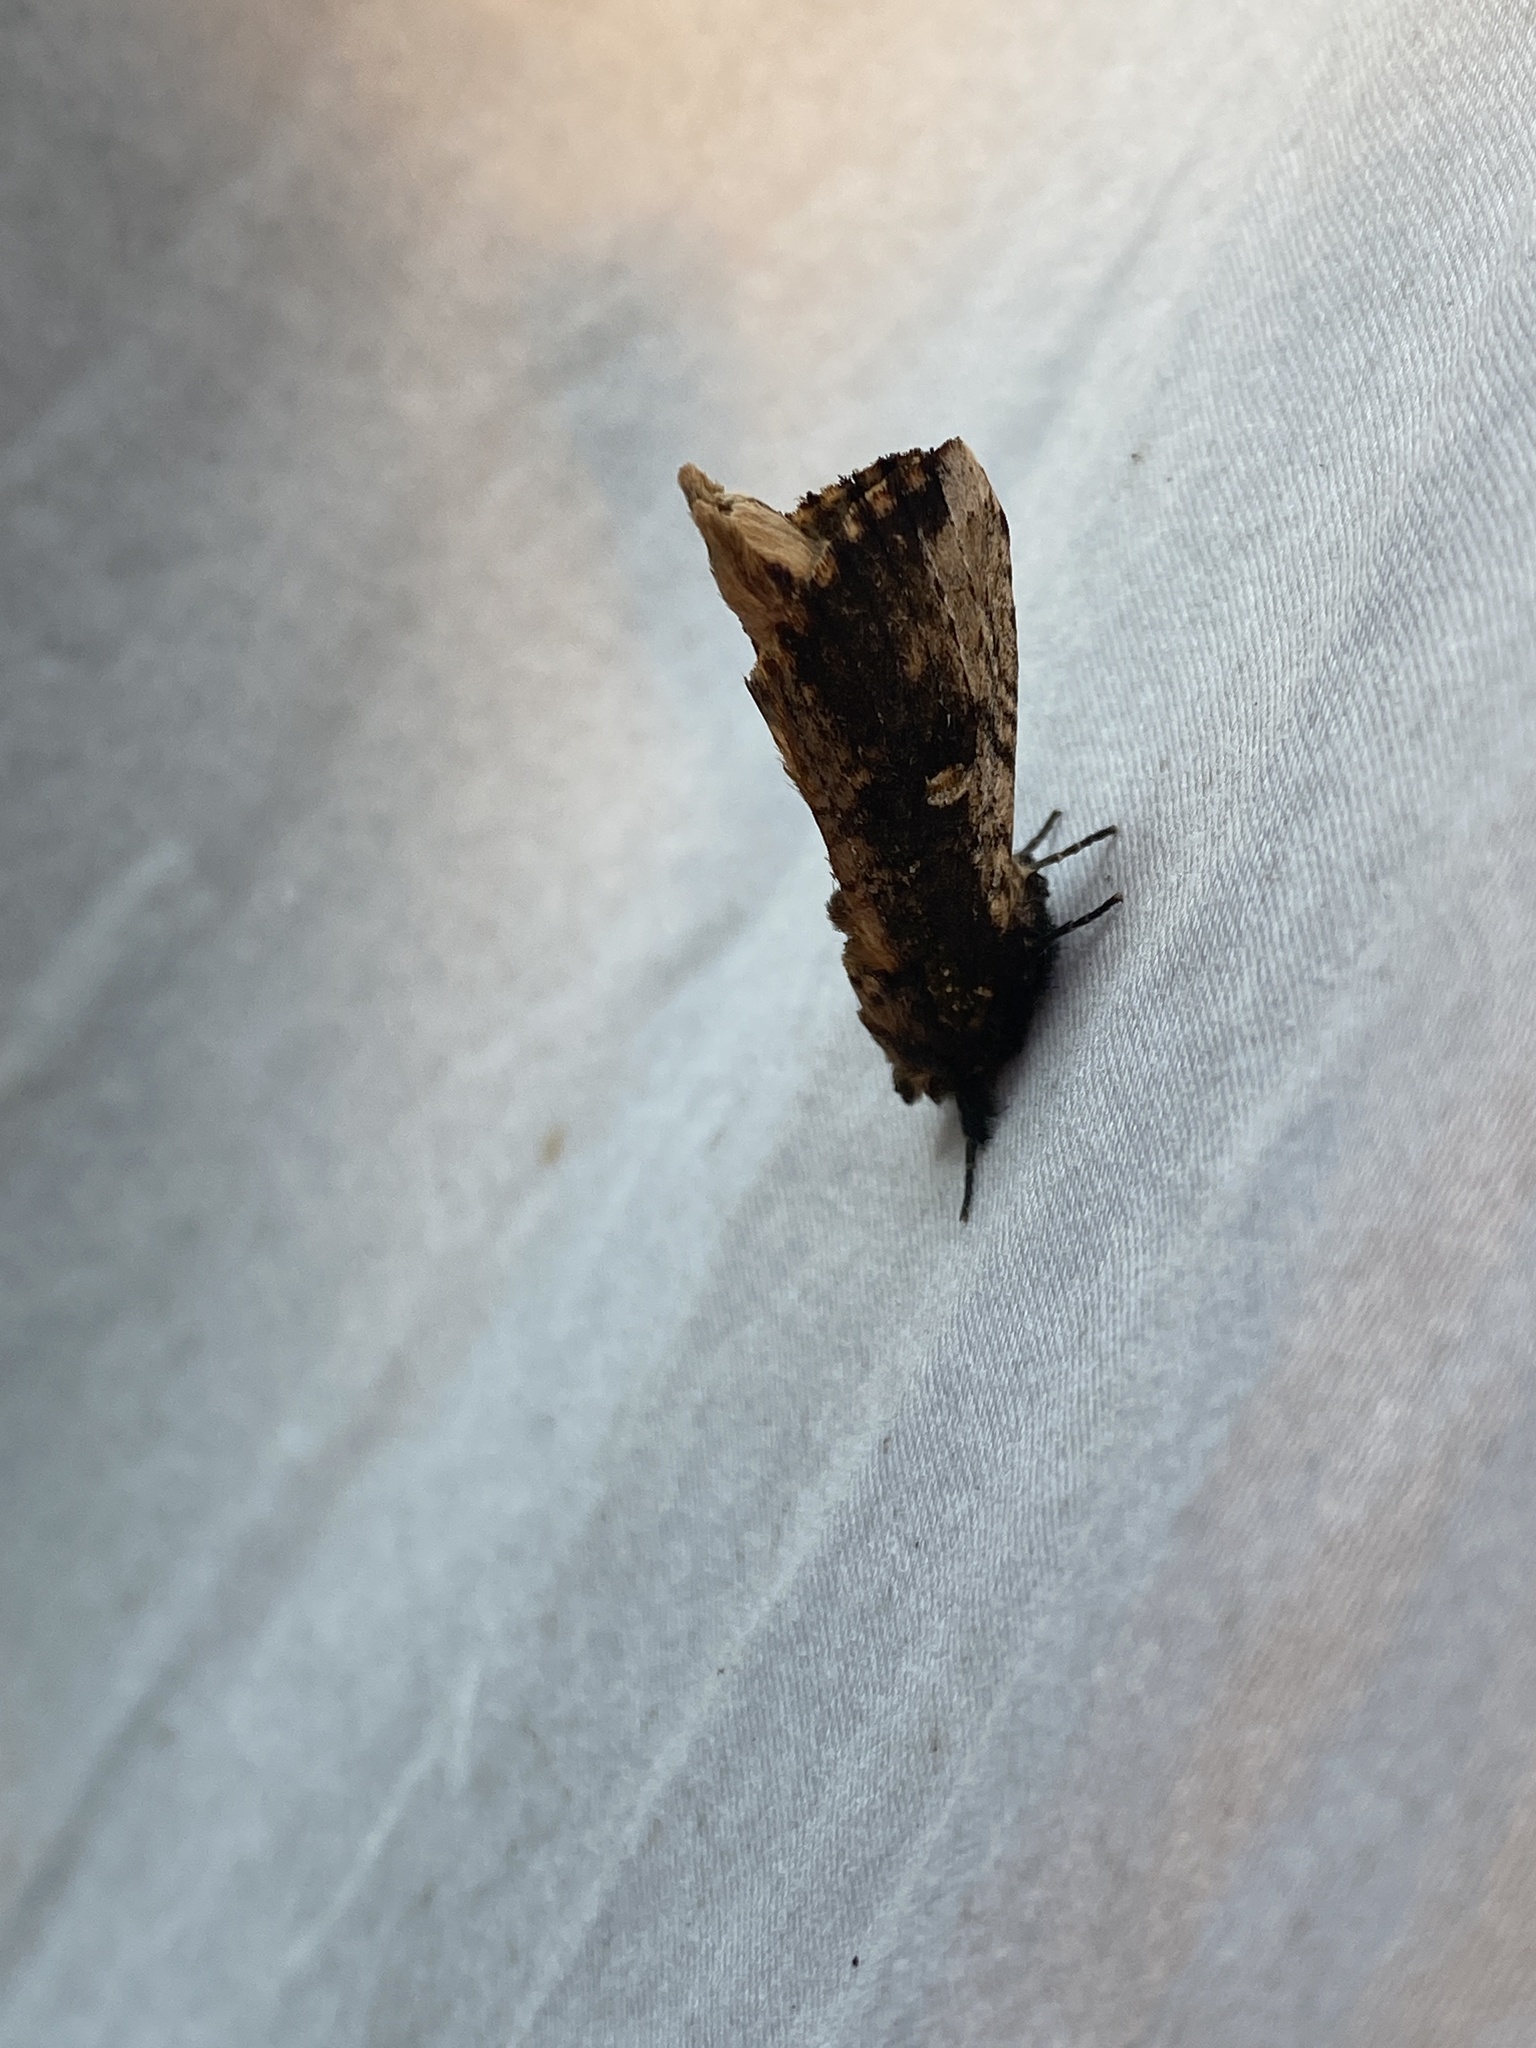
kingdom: Animalia
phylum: Arthropoda
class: Insecta
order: Lepidoptera
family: Notodontidae
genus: Schizura
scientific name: Schizura ipomaeae
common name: Morning-glory prominent
